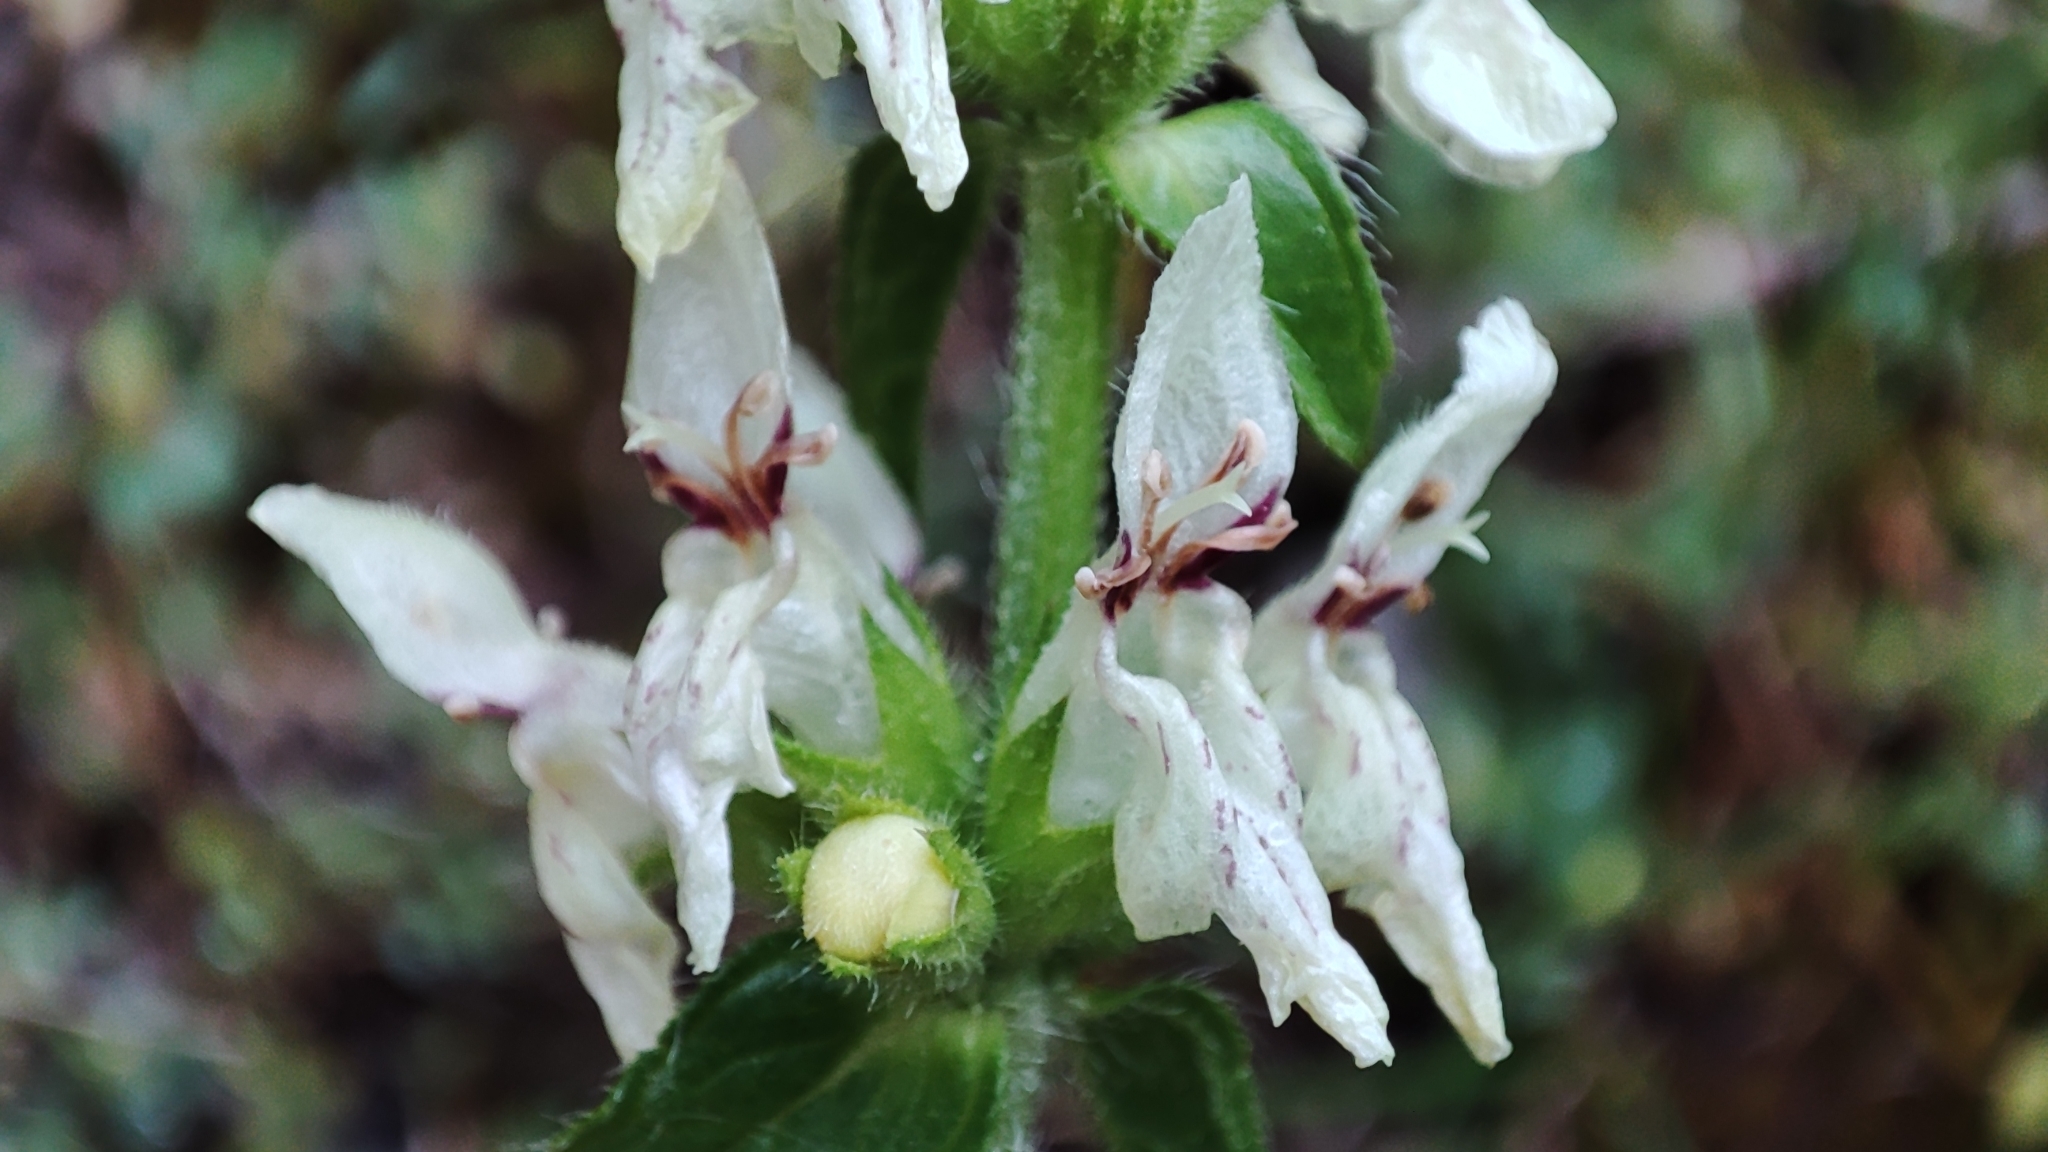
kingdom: Plantae
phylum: Tracheophyta
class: Magnoliopsida
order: Lamiales
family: Lamiaceae
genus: Stachys
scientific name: Stachys recta
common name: Perennial yellow-woundwort
